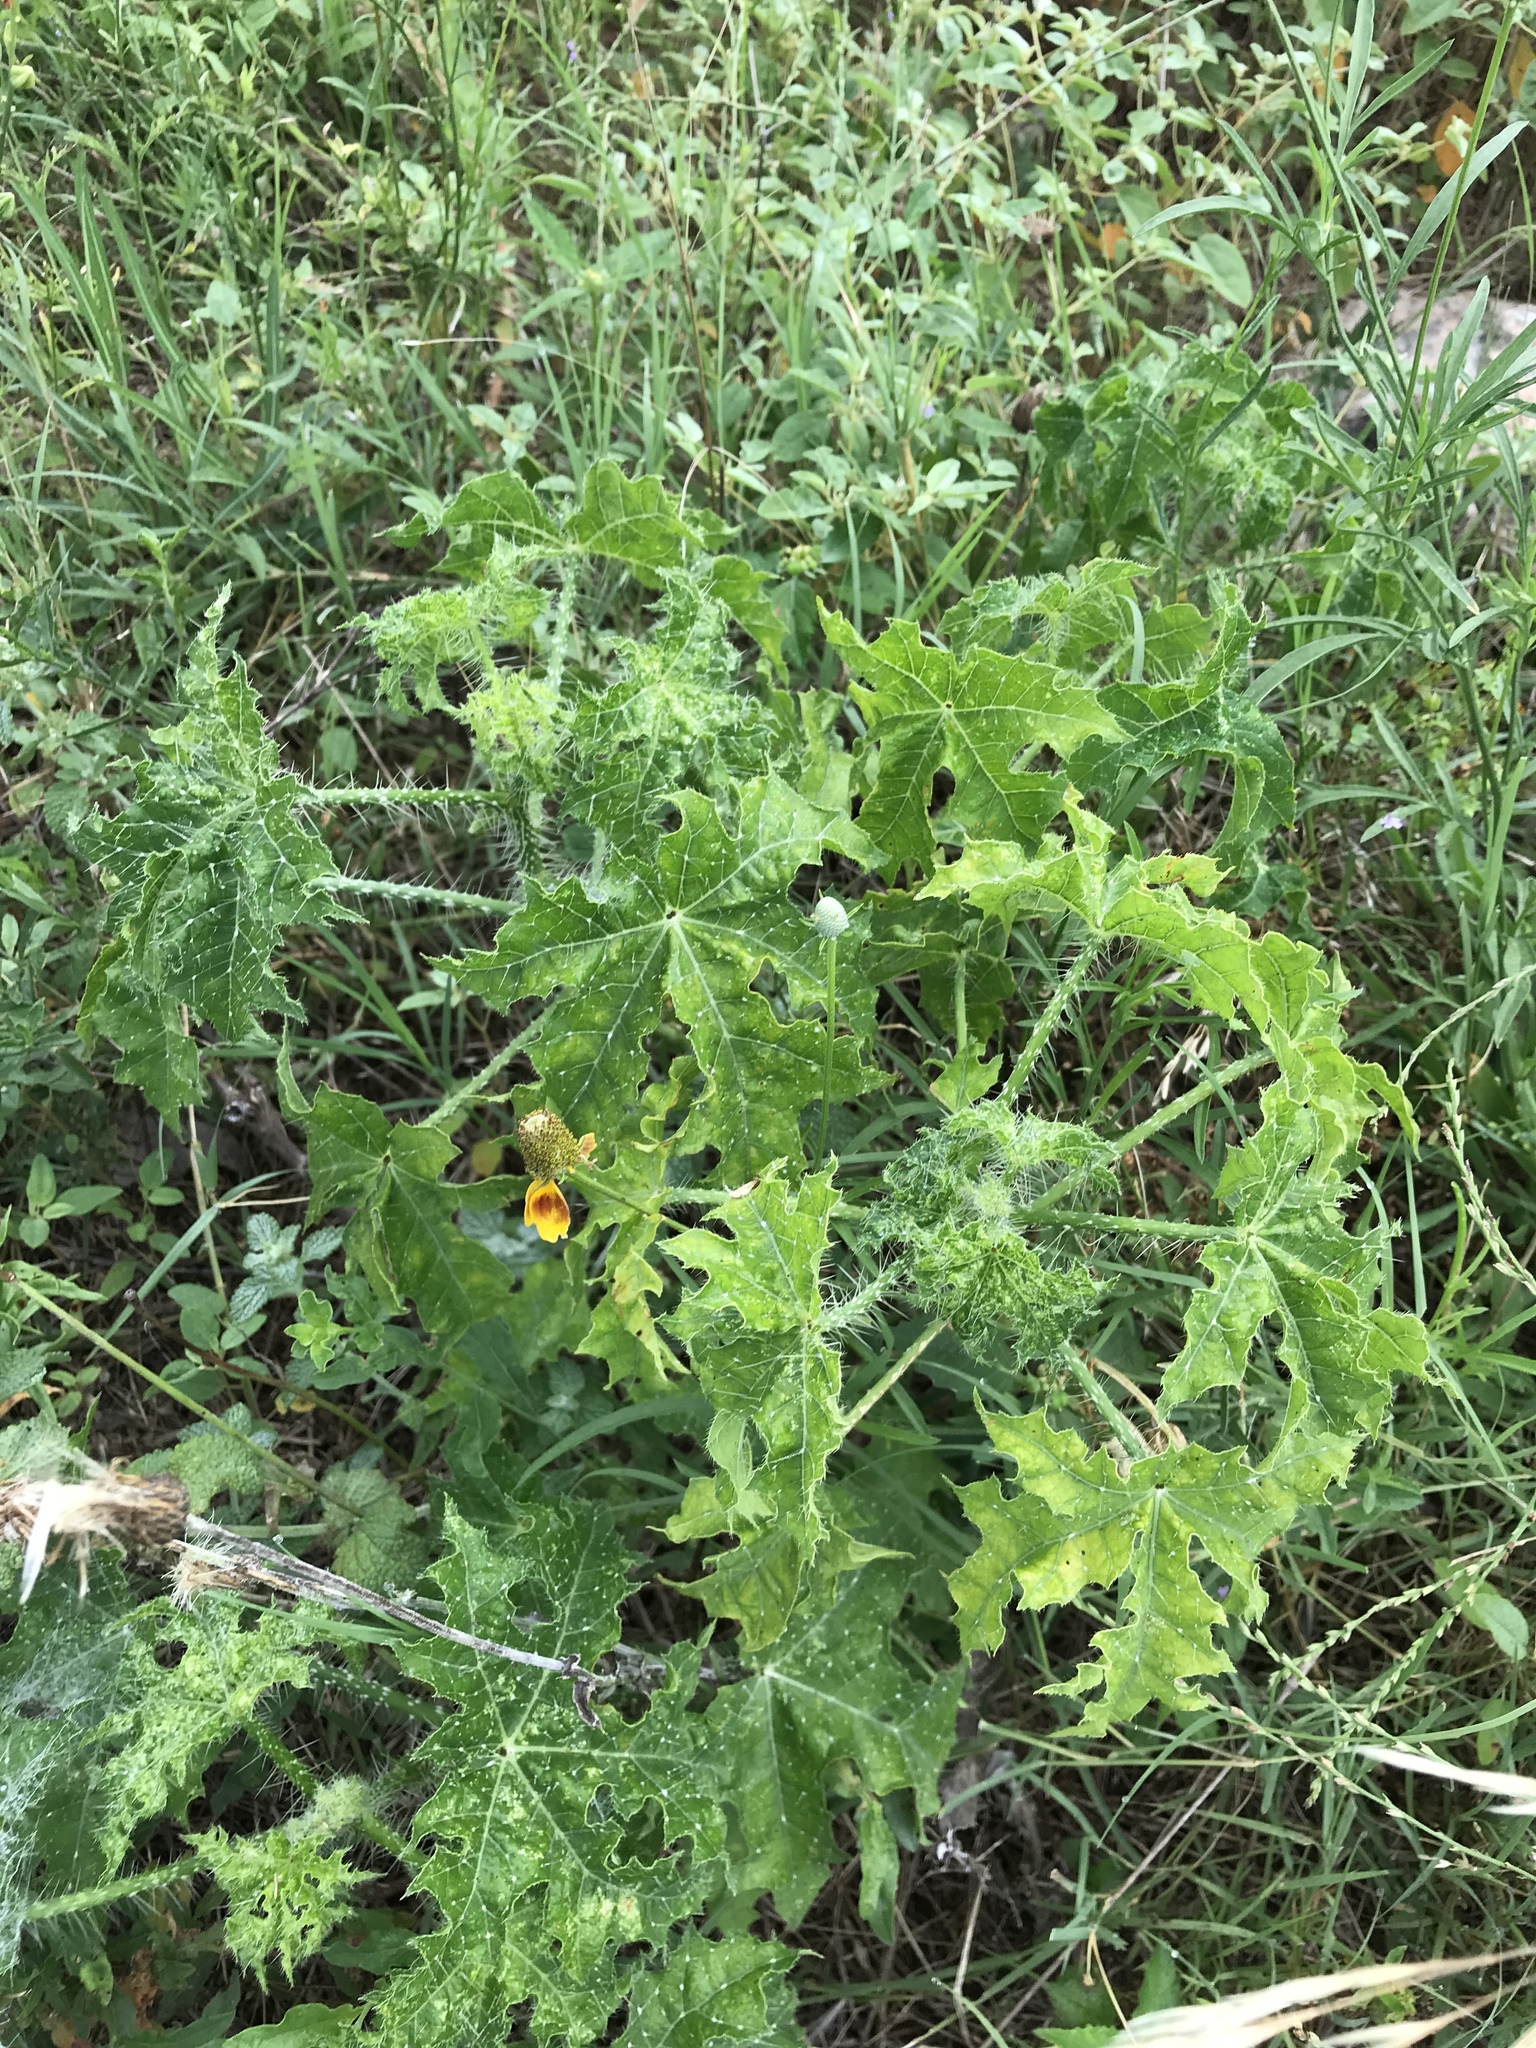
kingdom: Plantae
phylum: Tracheophyta
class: Magnoliopsida
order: Malpighiales
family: Euphorbiaceae
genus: Cnidoscolus
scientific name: Cnidoscolus texanus
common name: Texas bull-nettle
